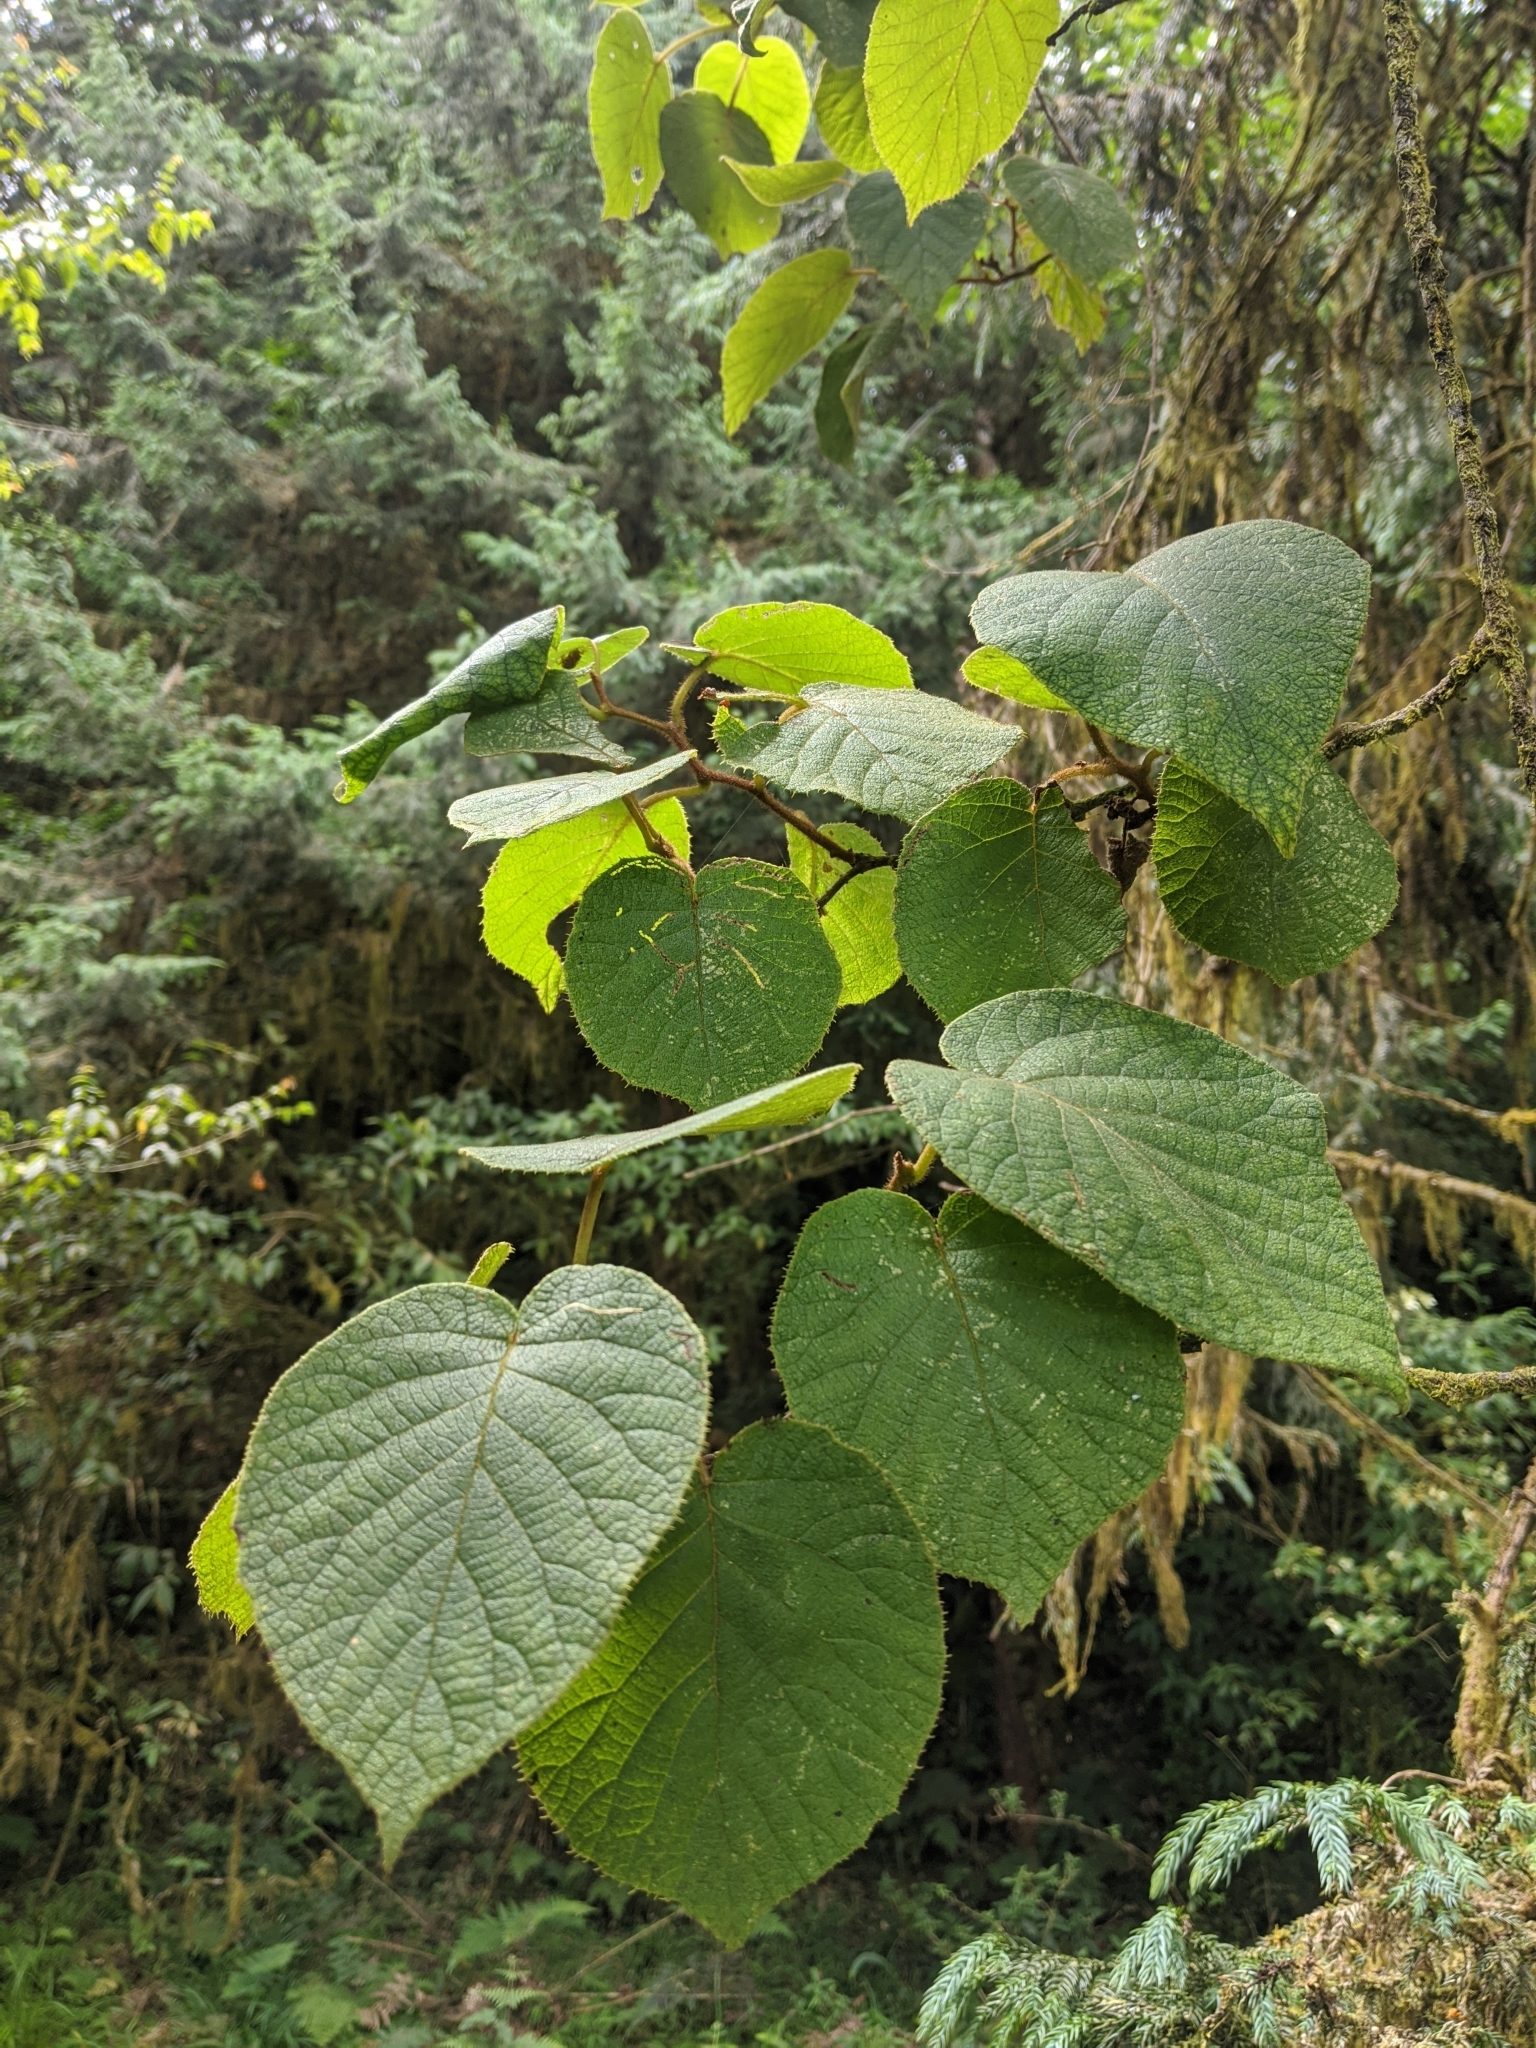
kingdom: Plantae
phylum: Tracheophyta
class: Magnoliopsida
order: Ericales
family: Actinidiaceae
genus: Actinidia
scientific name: Actinidia chinensis
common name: Kiwi
